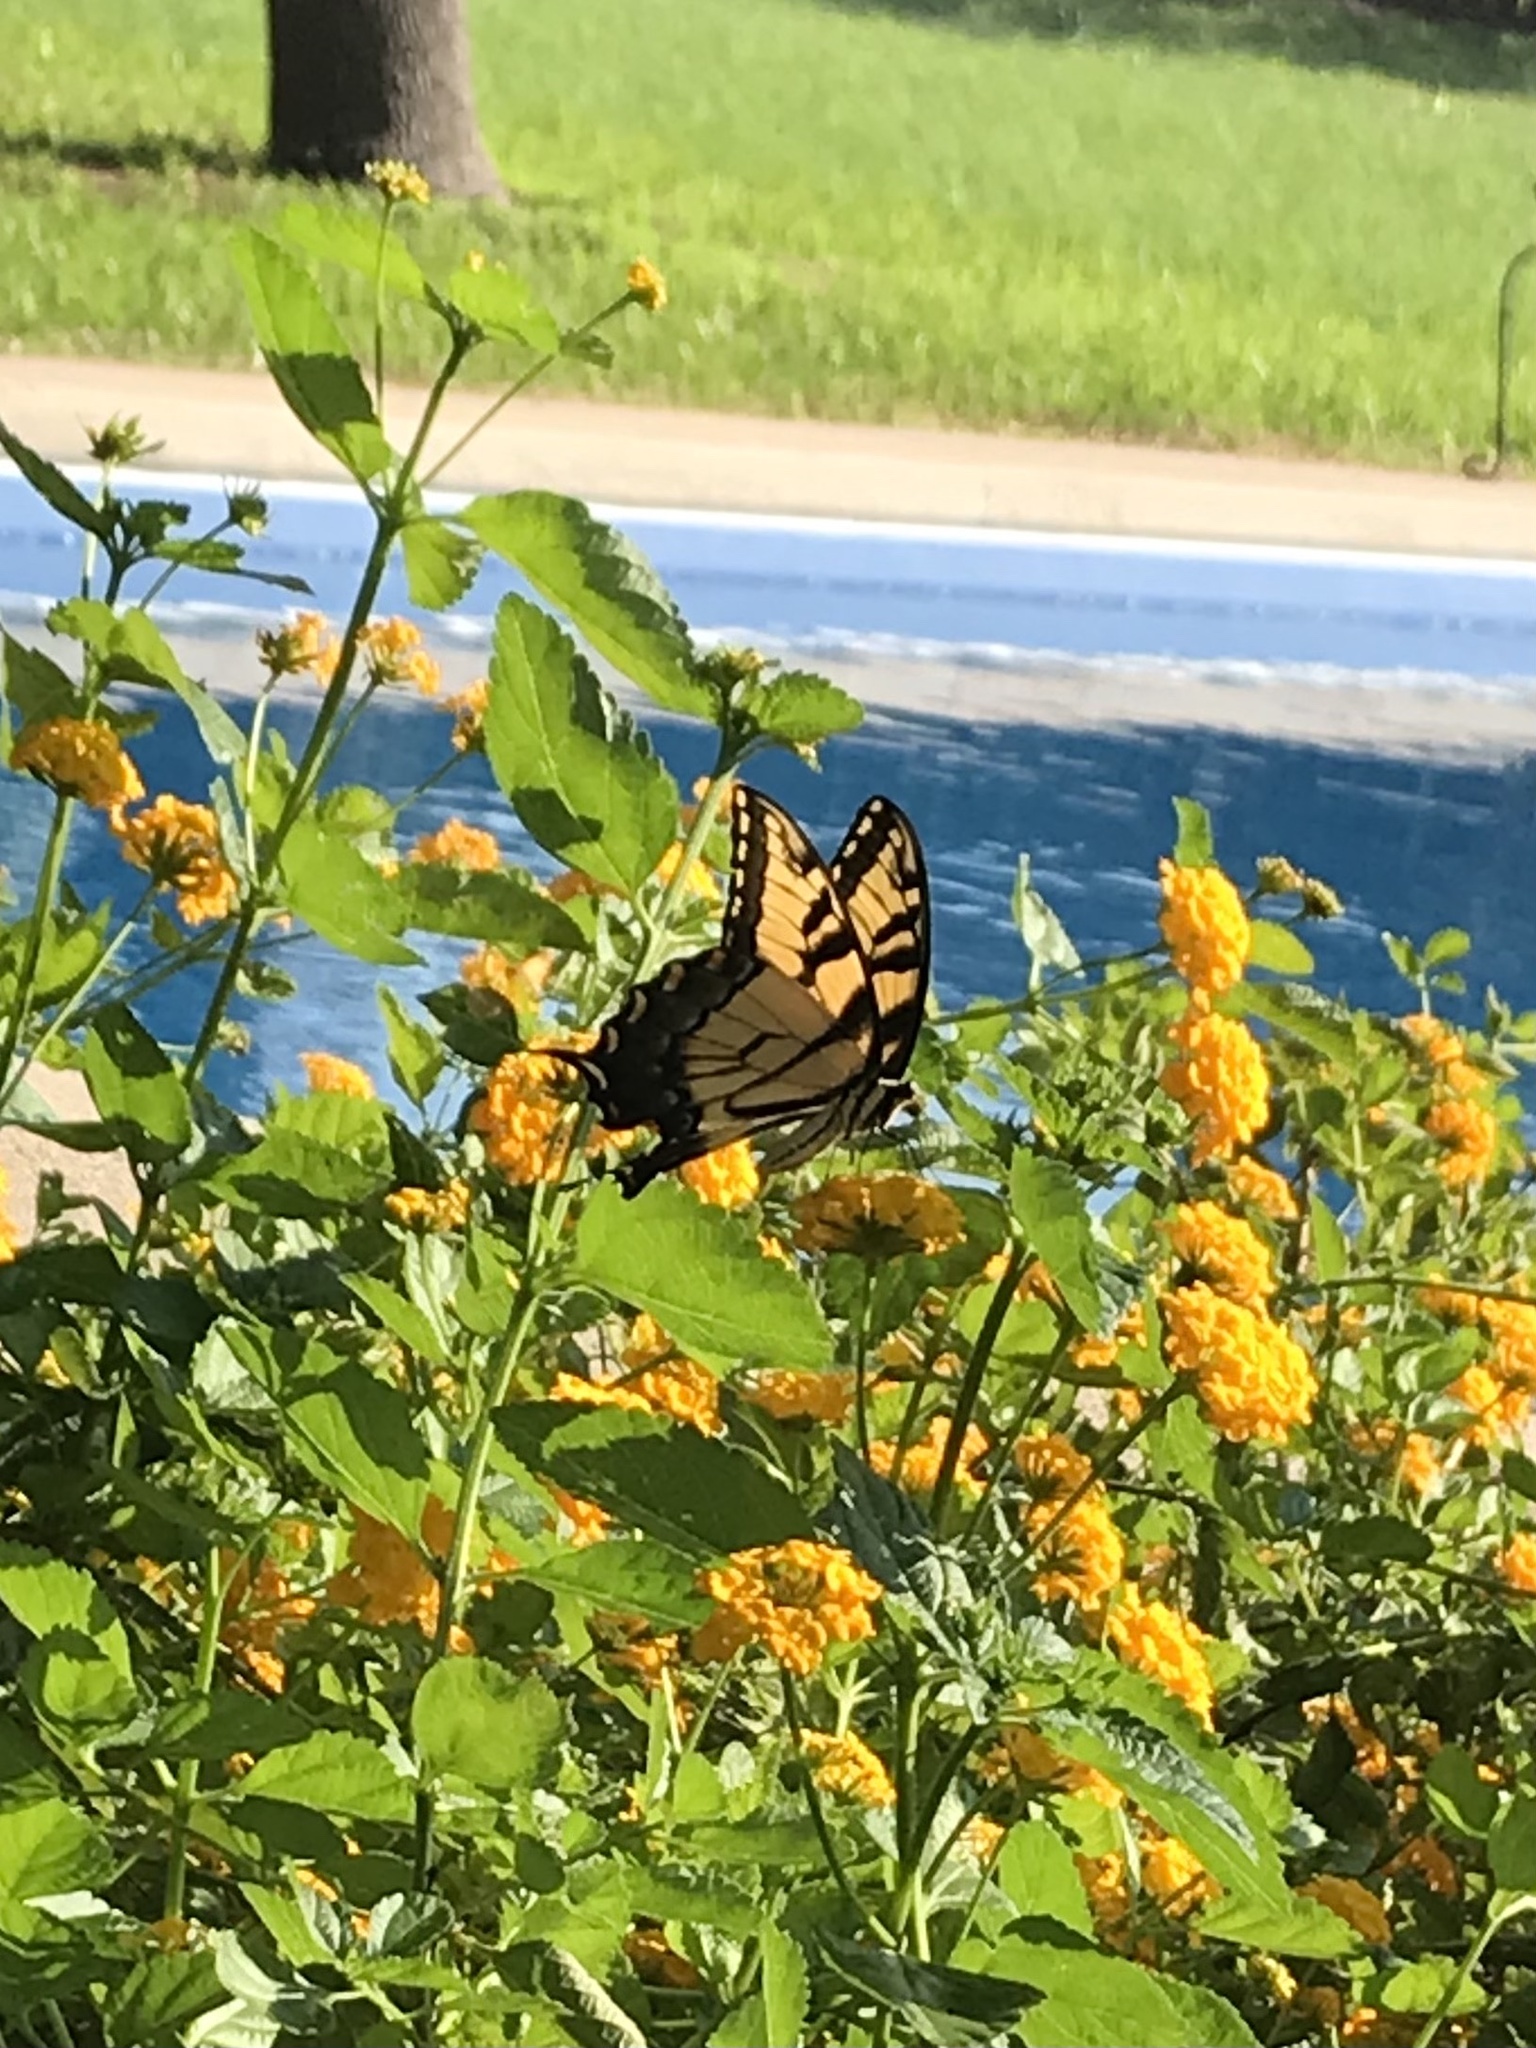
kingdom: Animalia
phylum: Arthropoda
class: Insecta
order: Lepidoptera
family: Papilionidae
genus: Papilio
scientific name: Papilio glaucus
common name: Tiger swallowtail
